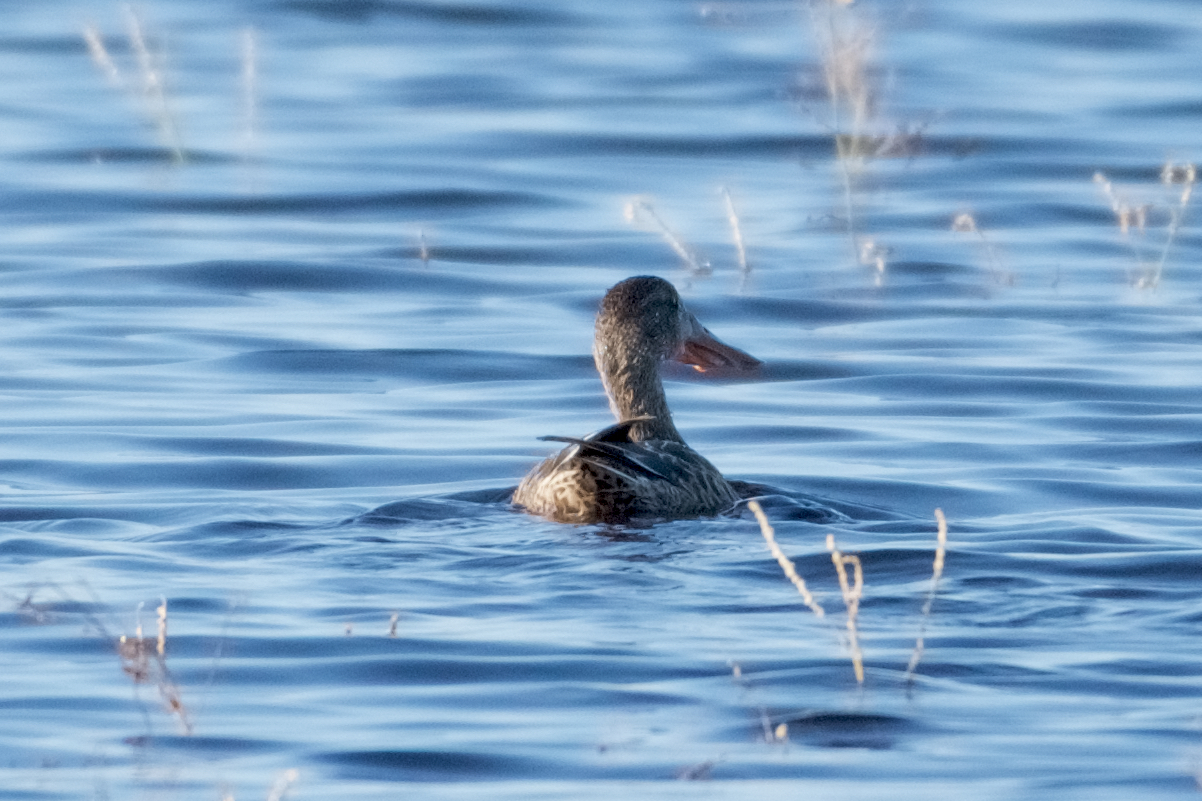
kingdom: Animalia
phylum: Chordata
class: Aves
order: Anseriformes
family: Anatidae
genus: Spatula
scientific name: Spatula clypeata
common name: Northern shoveler
